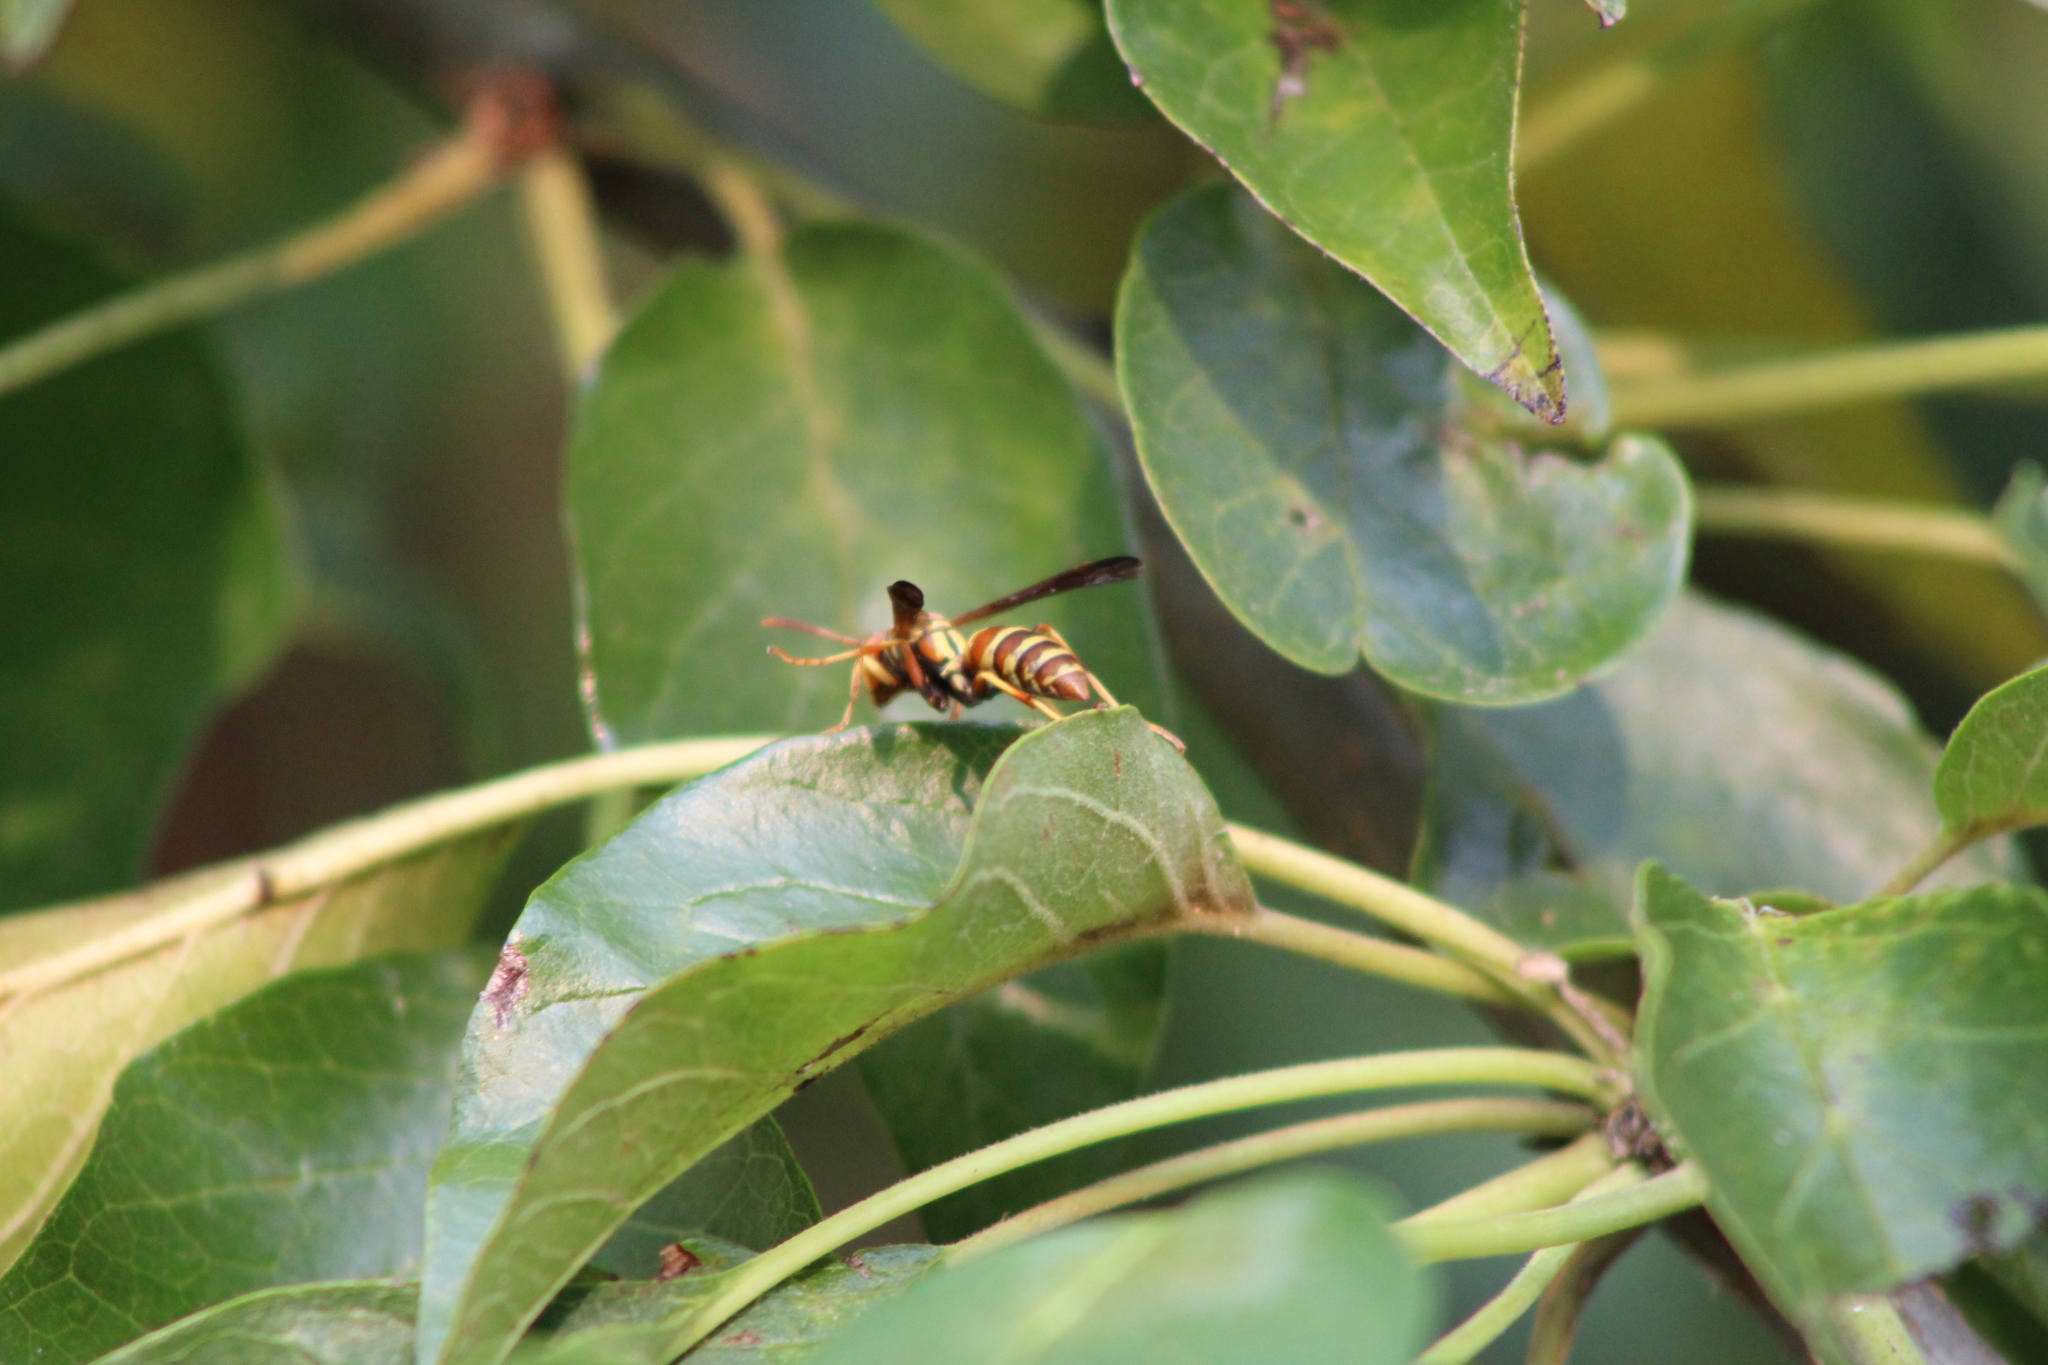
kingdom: Animalia
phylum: Arthropoda
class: Insecta
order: Hymenoptera
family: Eumenidae
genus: Polistes
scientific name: Polistes dorsalis
